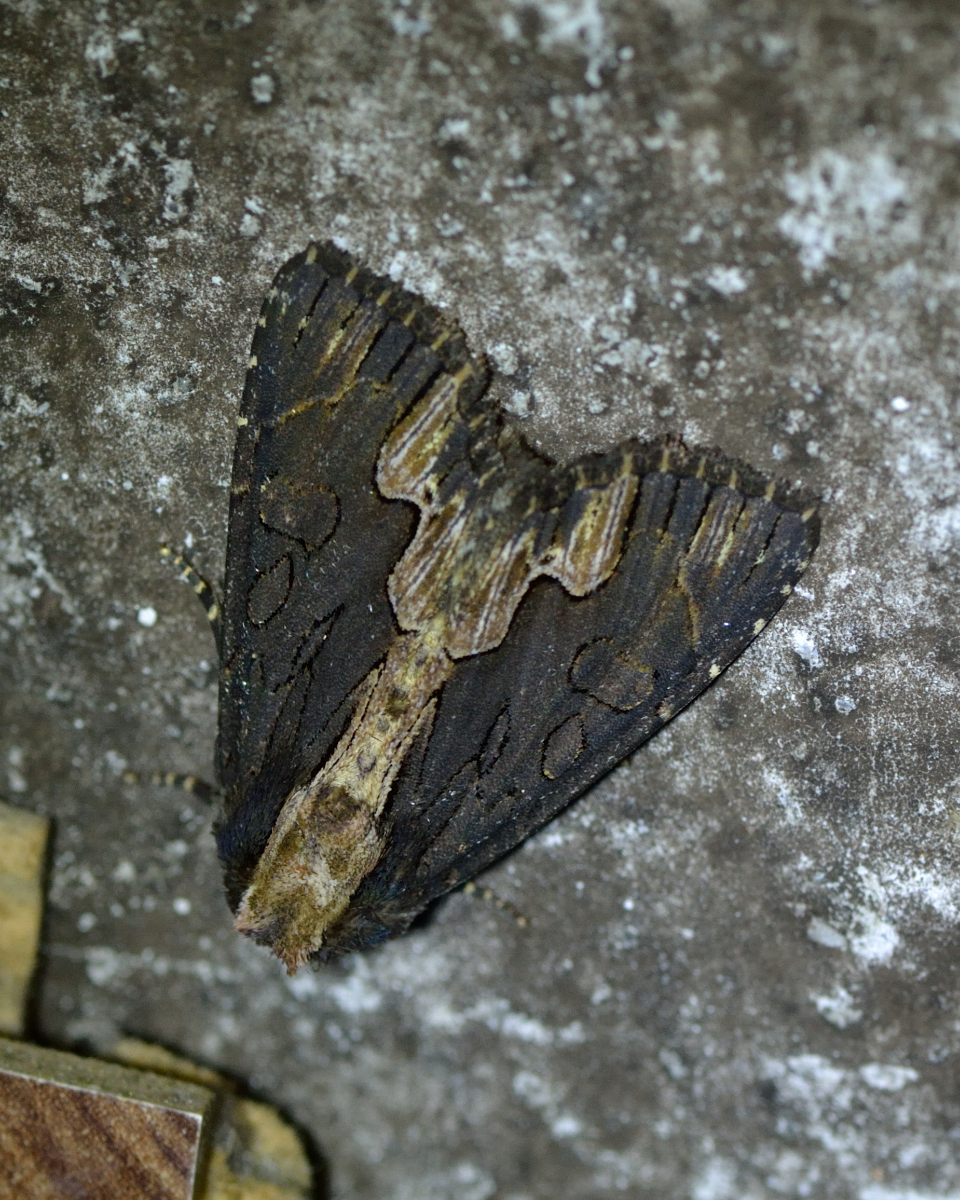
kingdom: Animalia
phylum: Arthropoda
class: Insecta
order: Lepidoptera
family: Noctuidae
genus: Dypterygia
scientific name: Dypterygia scabriuscula
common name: Bird's wing
